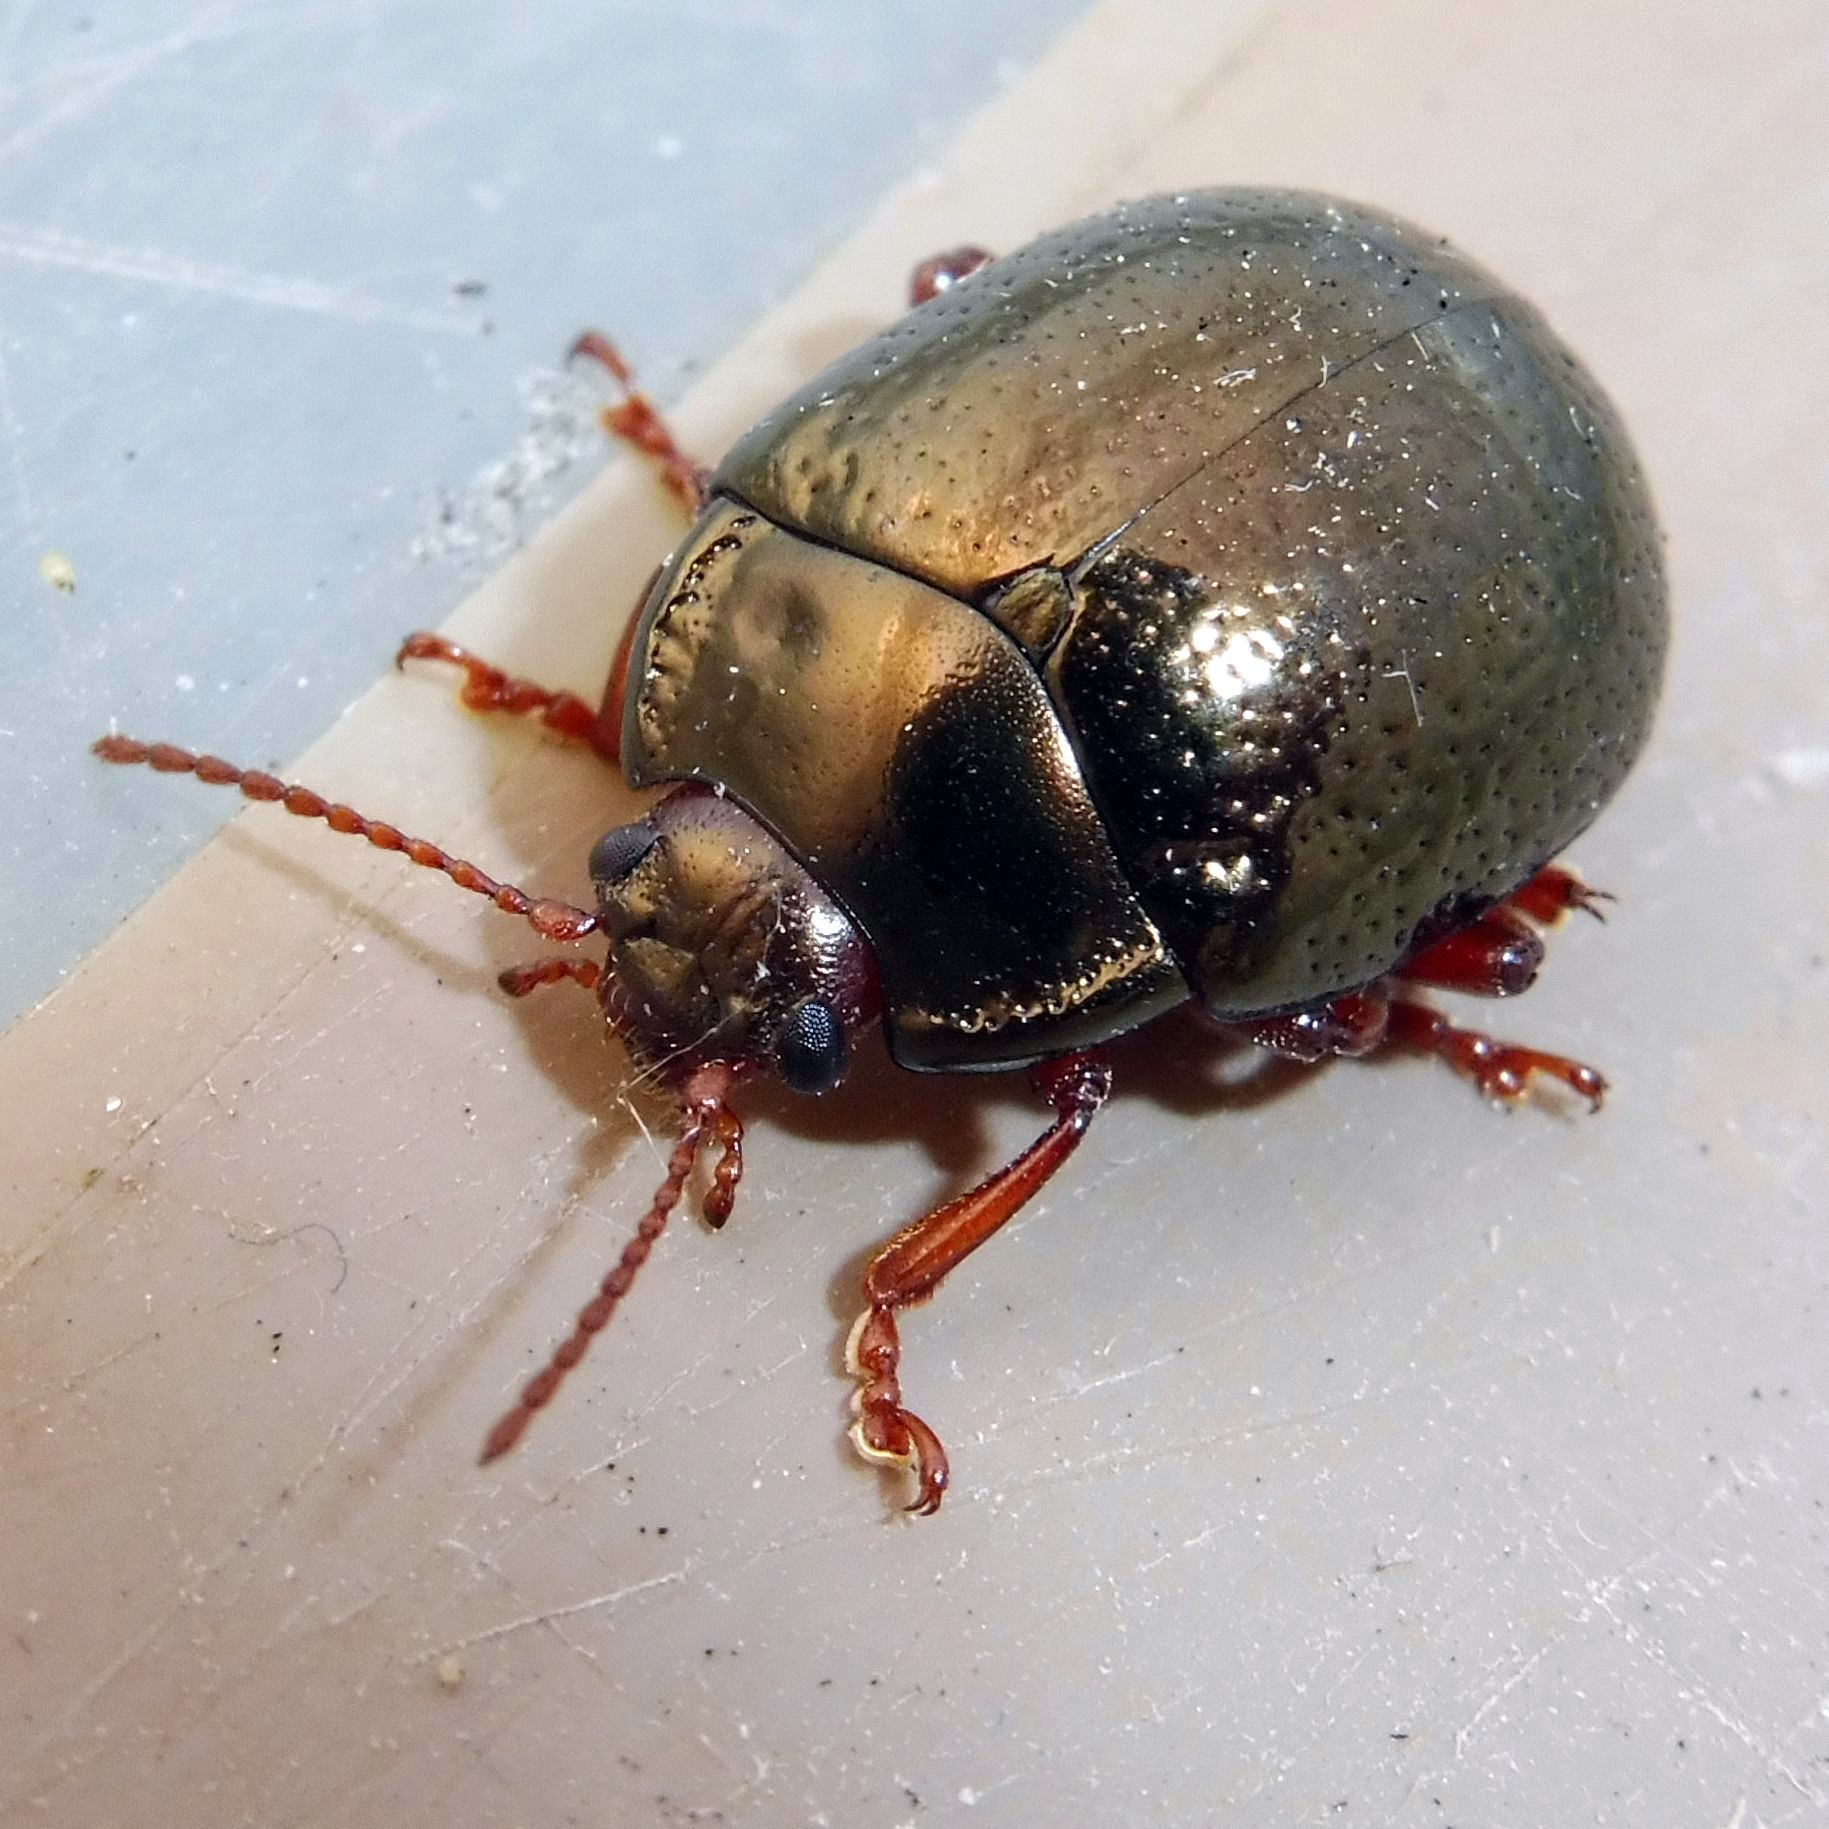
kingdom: Animalia
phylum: Arthropoda
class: Insecta
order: Coleoptera
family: Chrysomelidae
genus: Chrysolina
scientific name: Chrysolina bankii
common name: Leaf beetle
